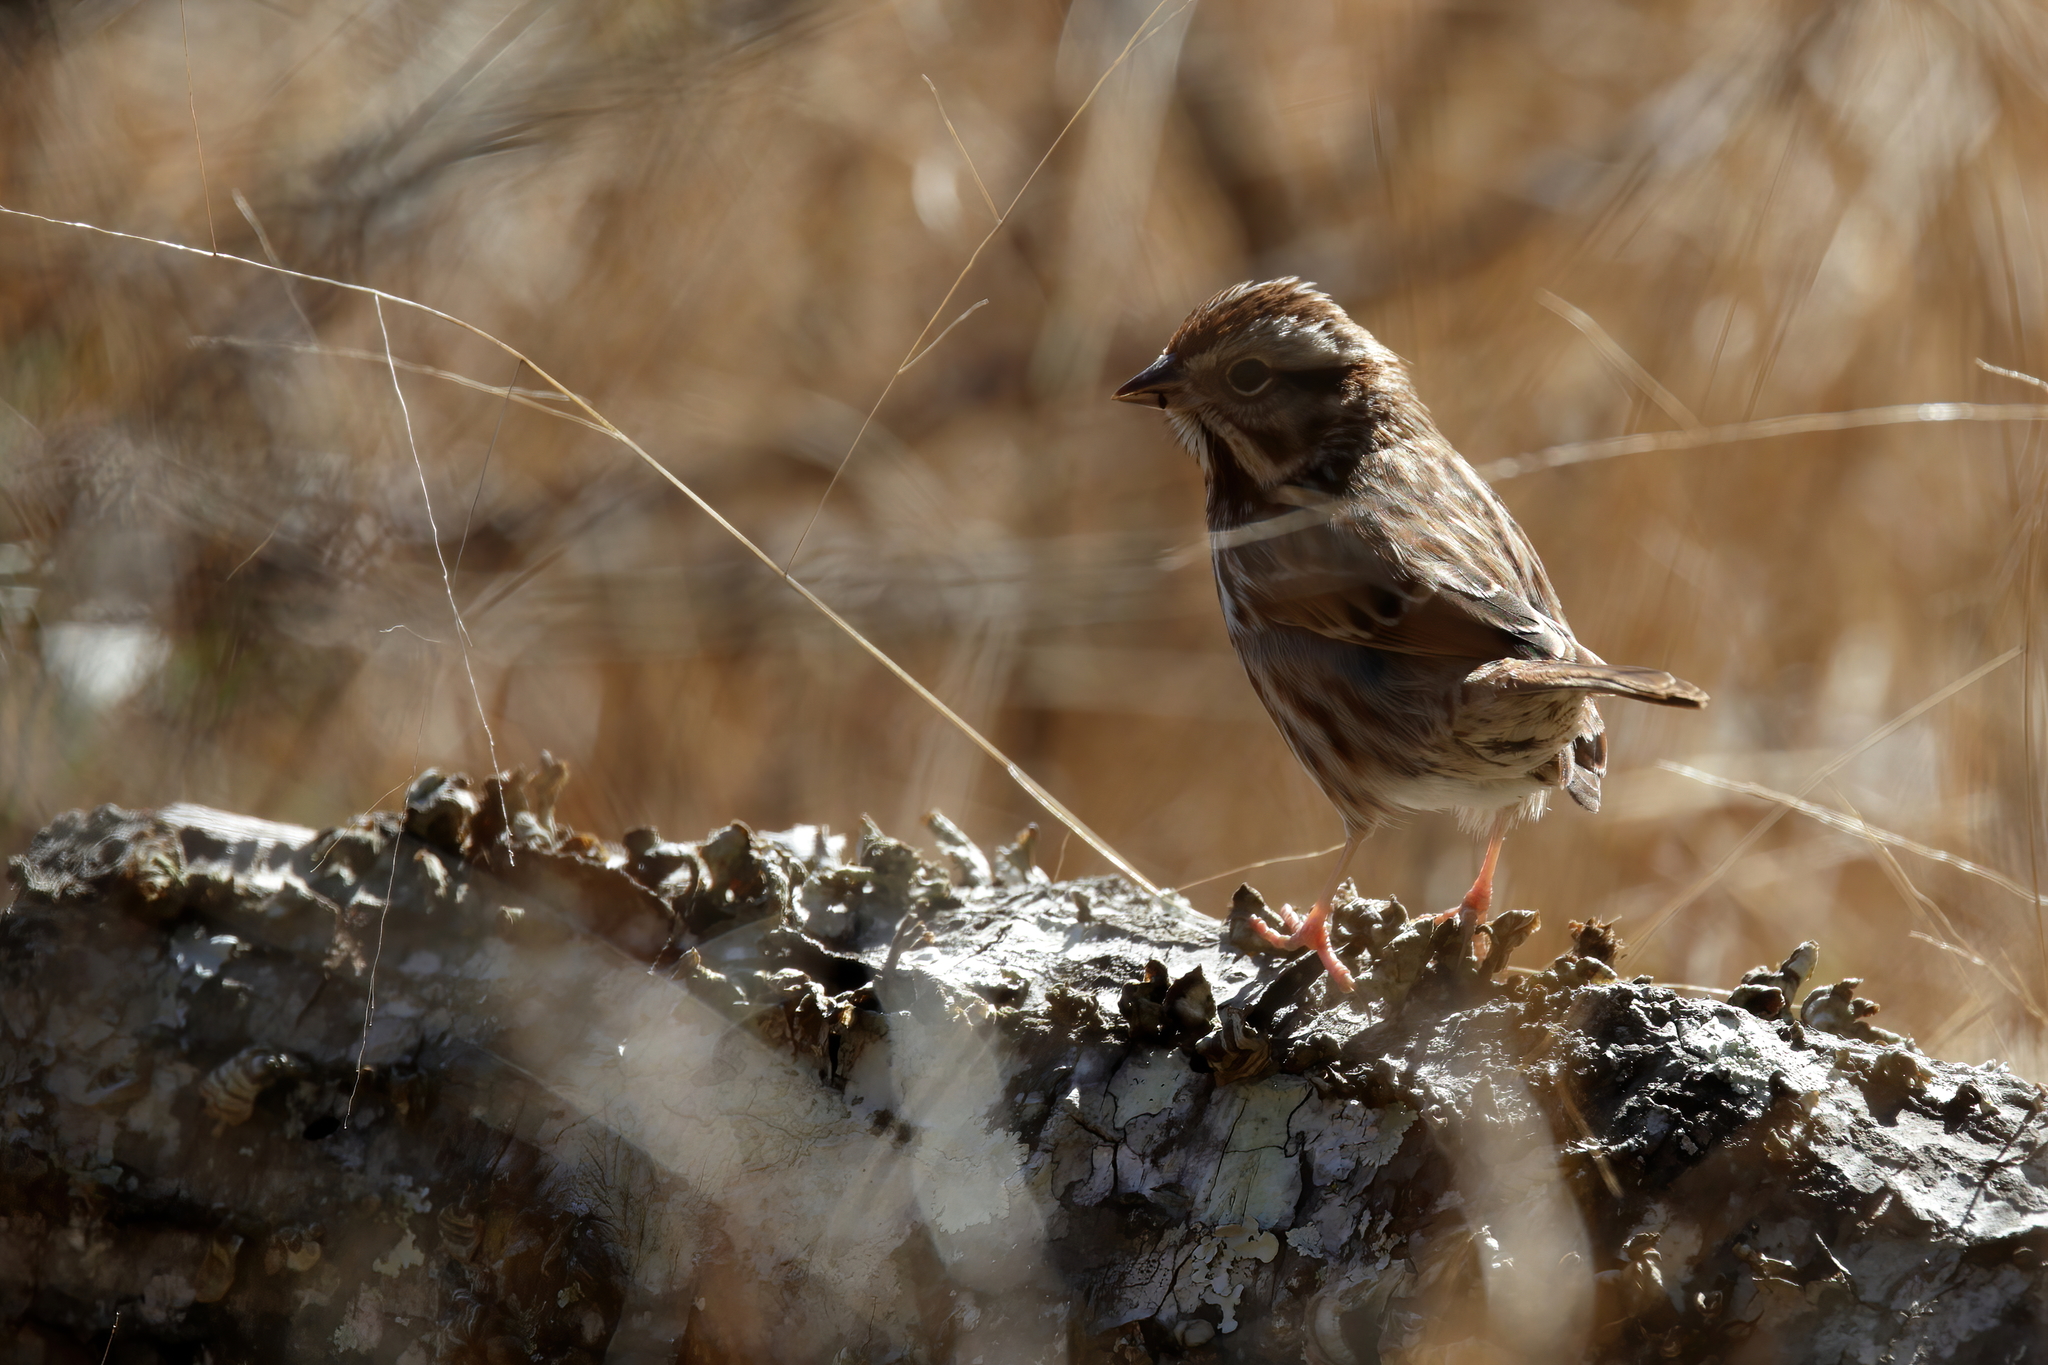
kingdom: Animalia
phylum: Chordata
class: Aves
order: Passeriformes
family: Passerellidae
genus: Melospiza
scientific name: Melospiza melodia
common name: Song sparrow
